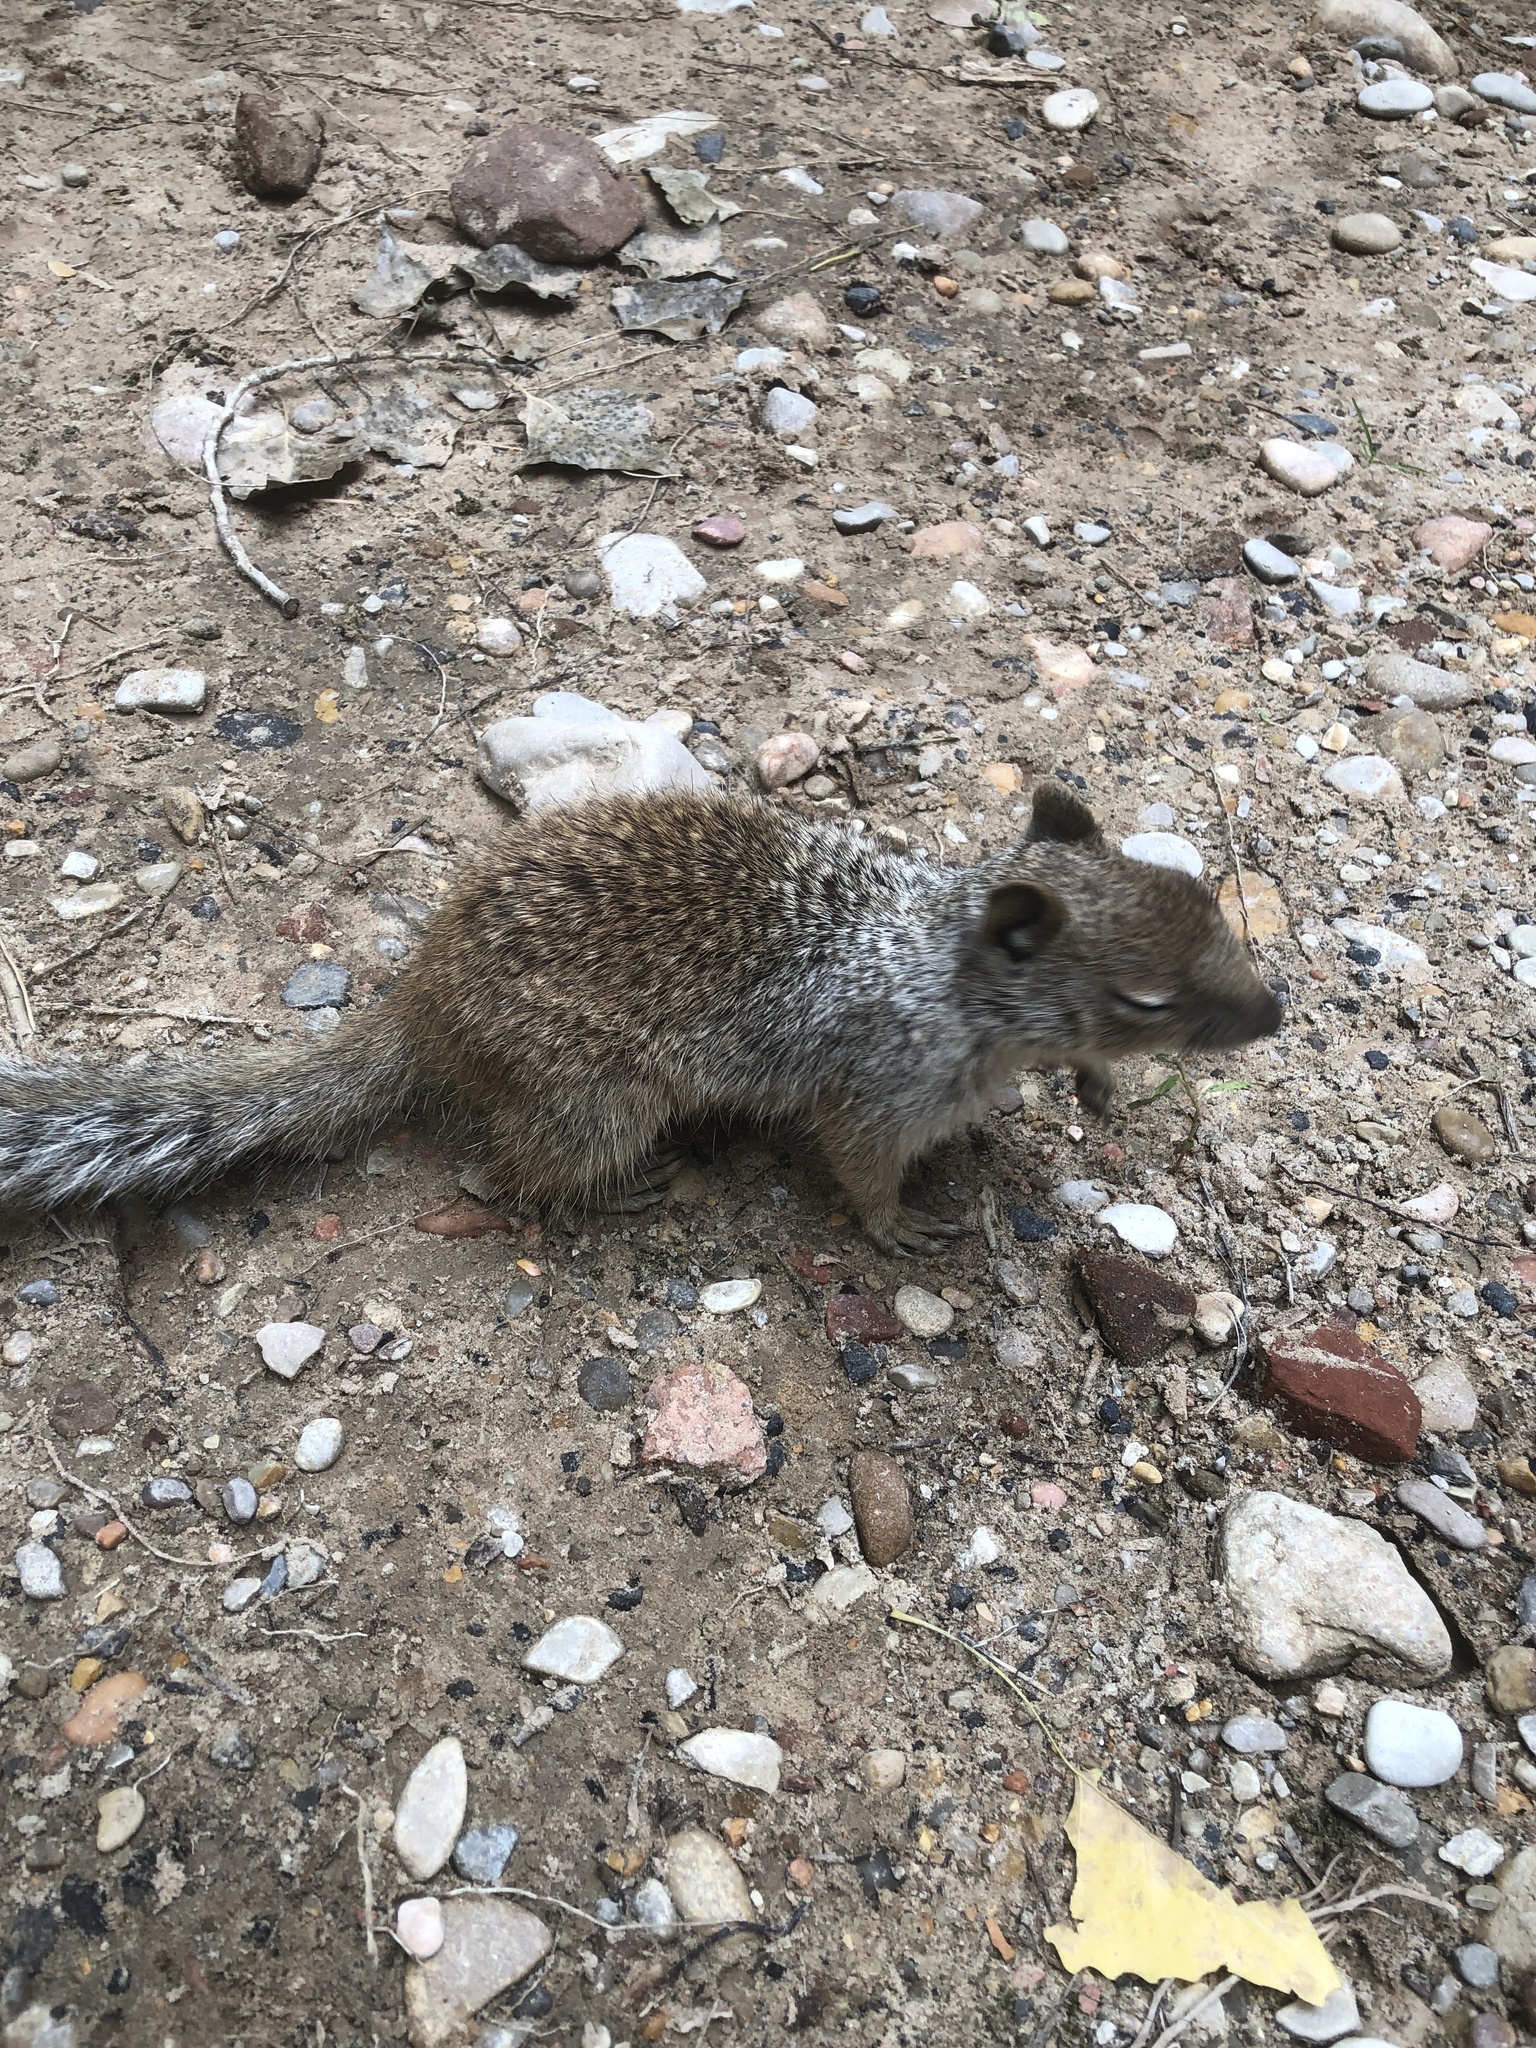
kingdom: Animalia
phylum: Chordata
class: Mammalia
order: Rodentia
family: Sciuridae
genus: Otospermophilus
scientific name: Otospermophilus variegatus
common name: Rock squirrel
